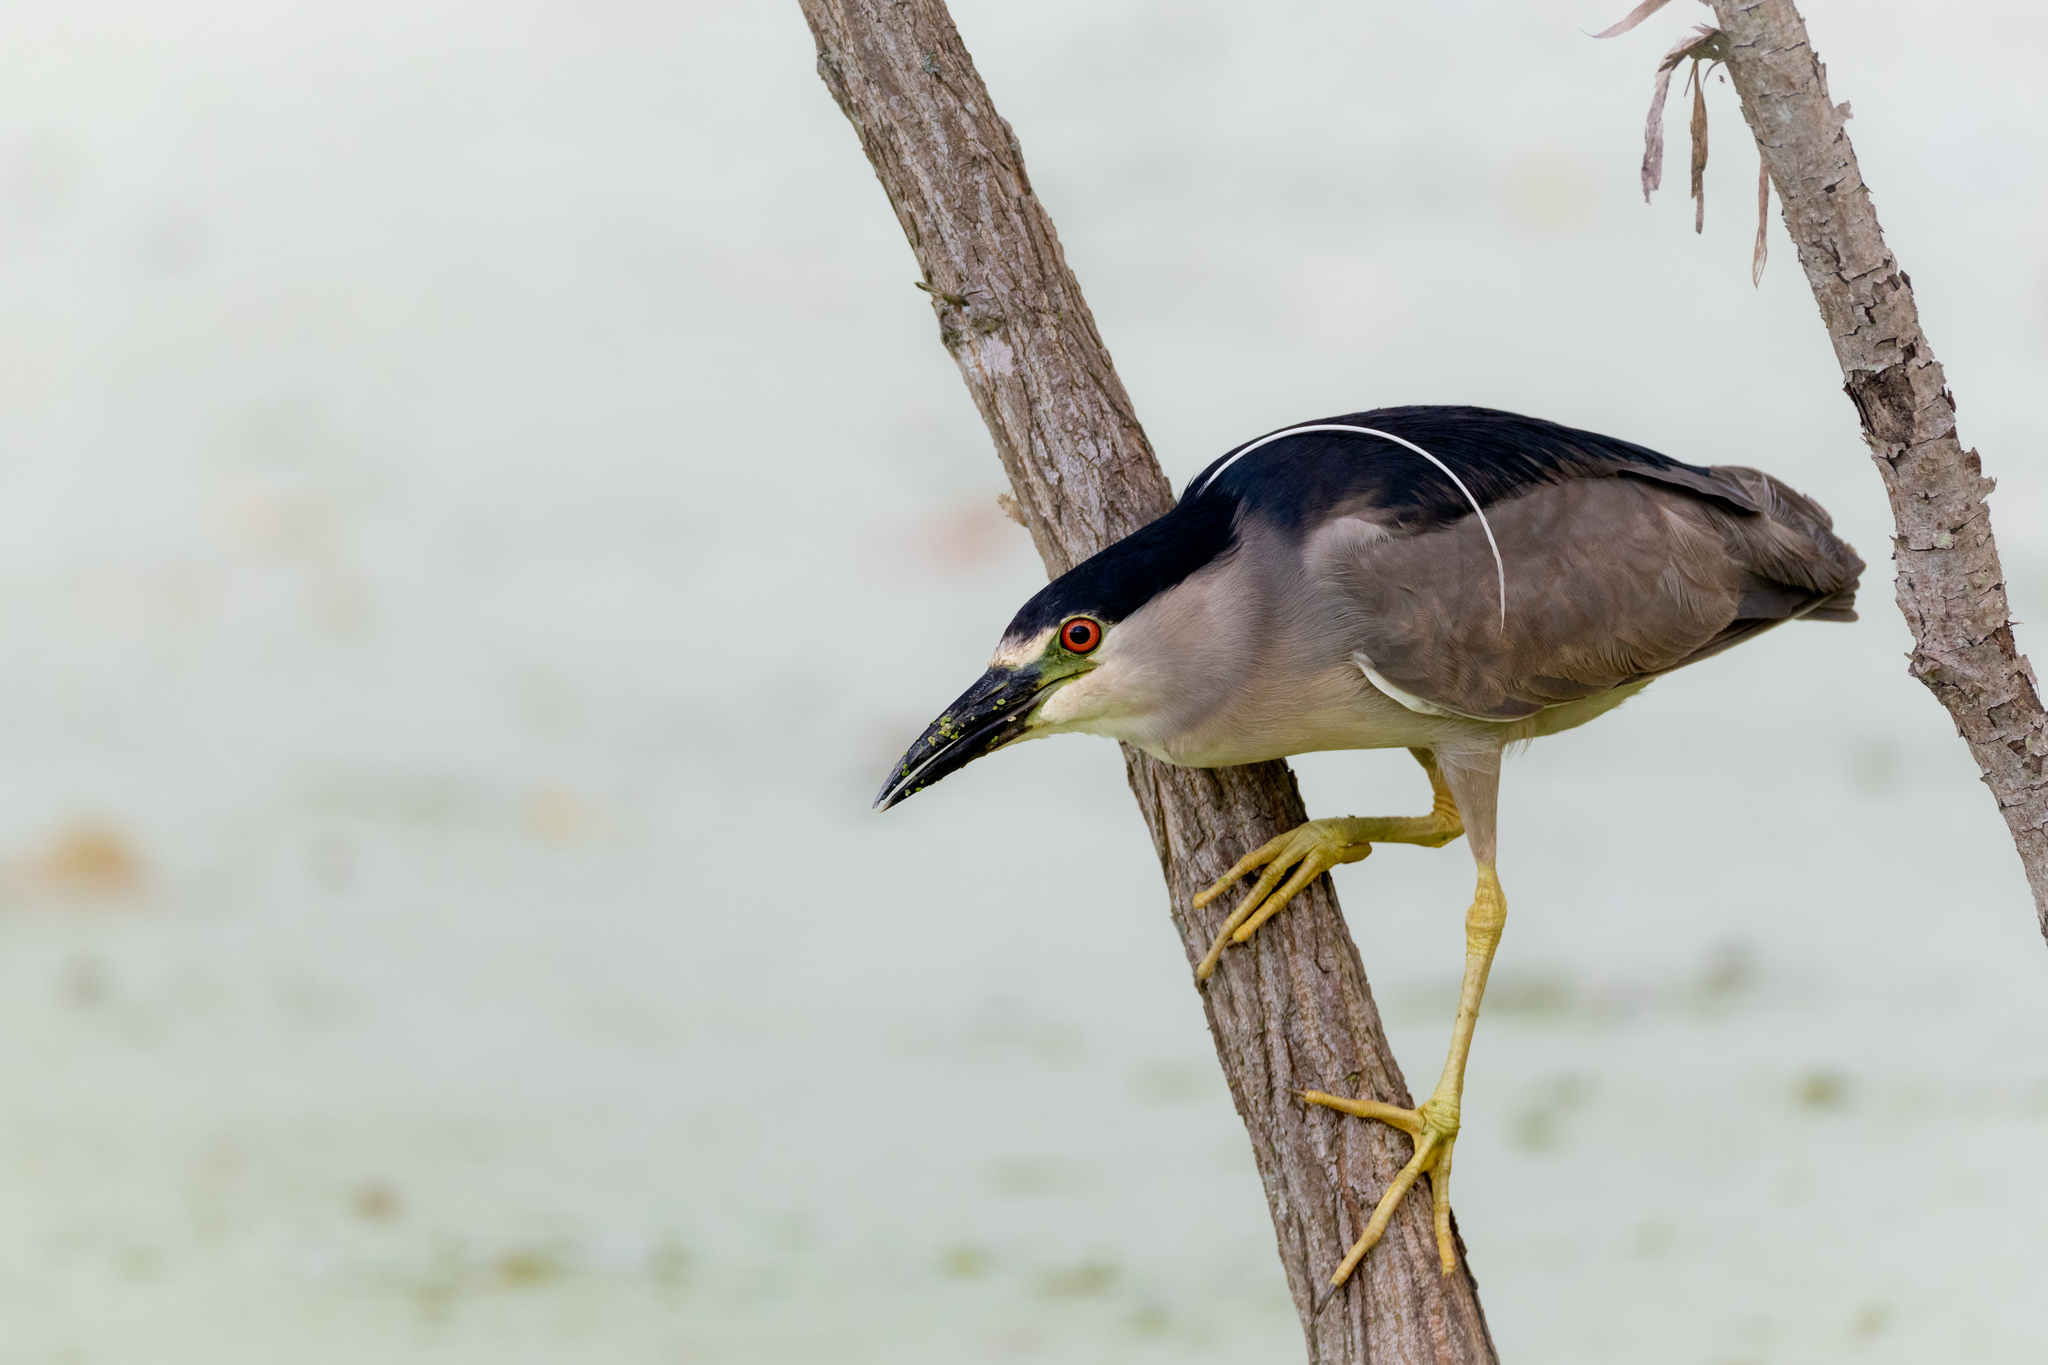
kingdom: Animalia
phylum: Chordata
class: Aves
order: Pelecaniformes
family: Ardeidae
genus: Nycticorax
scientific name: Nycticorax nycticorax
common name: Black-crowned night heron
